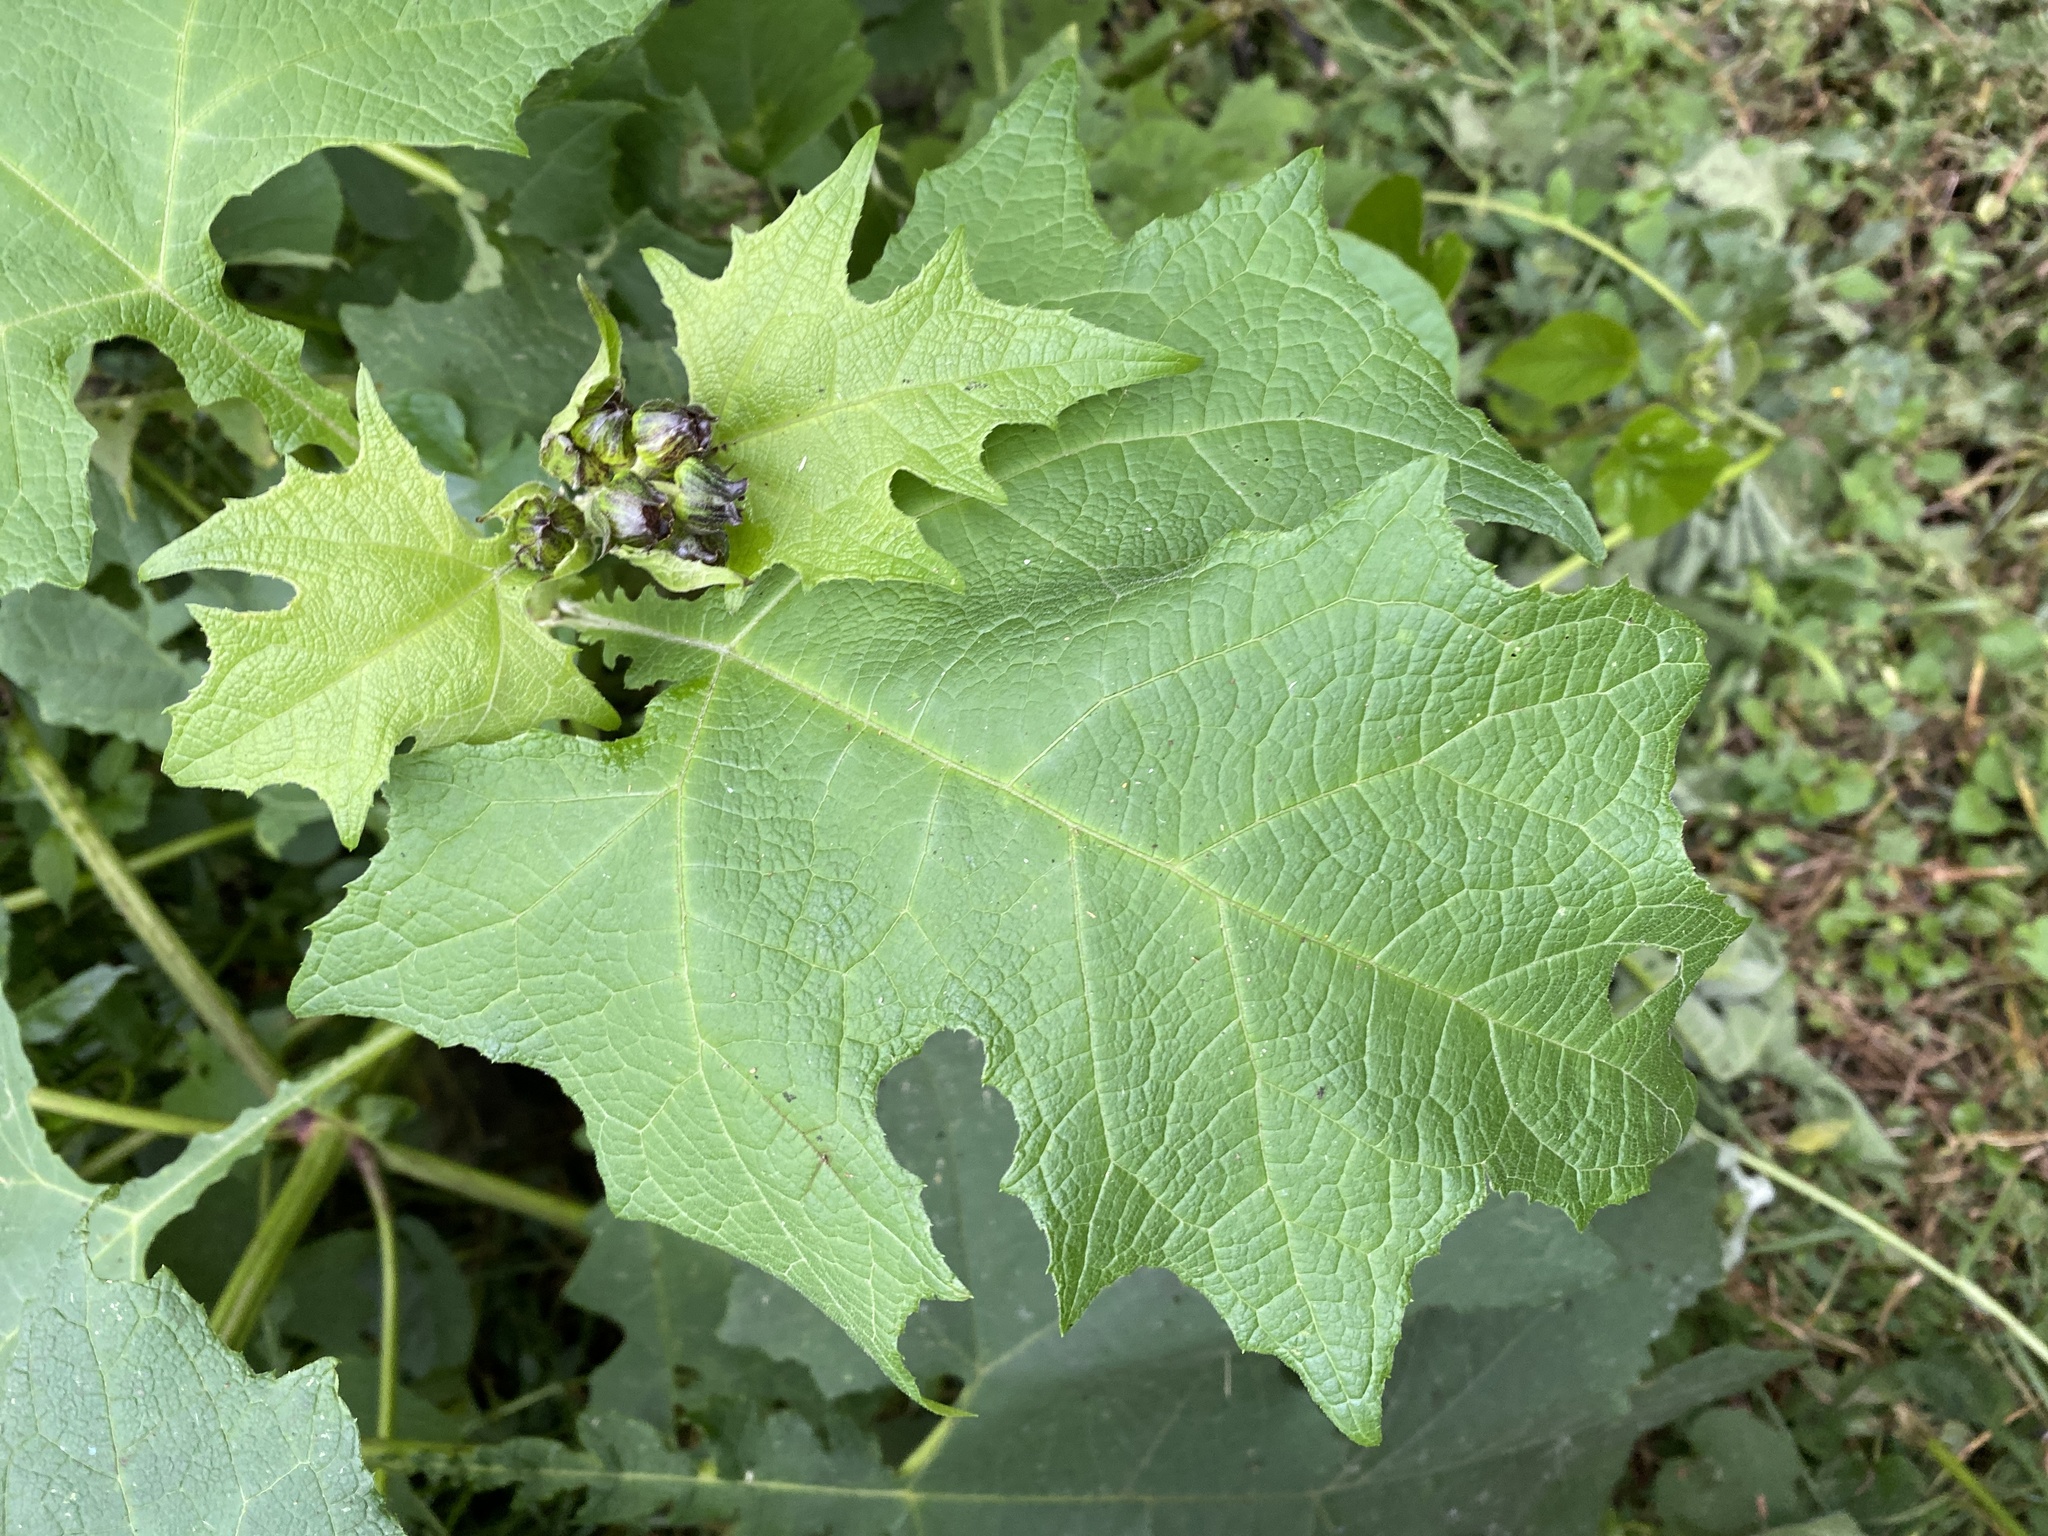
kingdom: Plantae
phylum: Tracheophyta
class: Magnoliopsida
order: Asterales
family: Asteraceae
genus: Smallanthus
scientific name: Smallanthus maculatus
